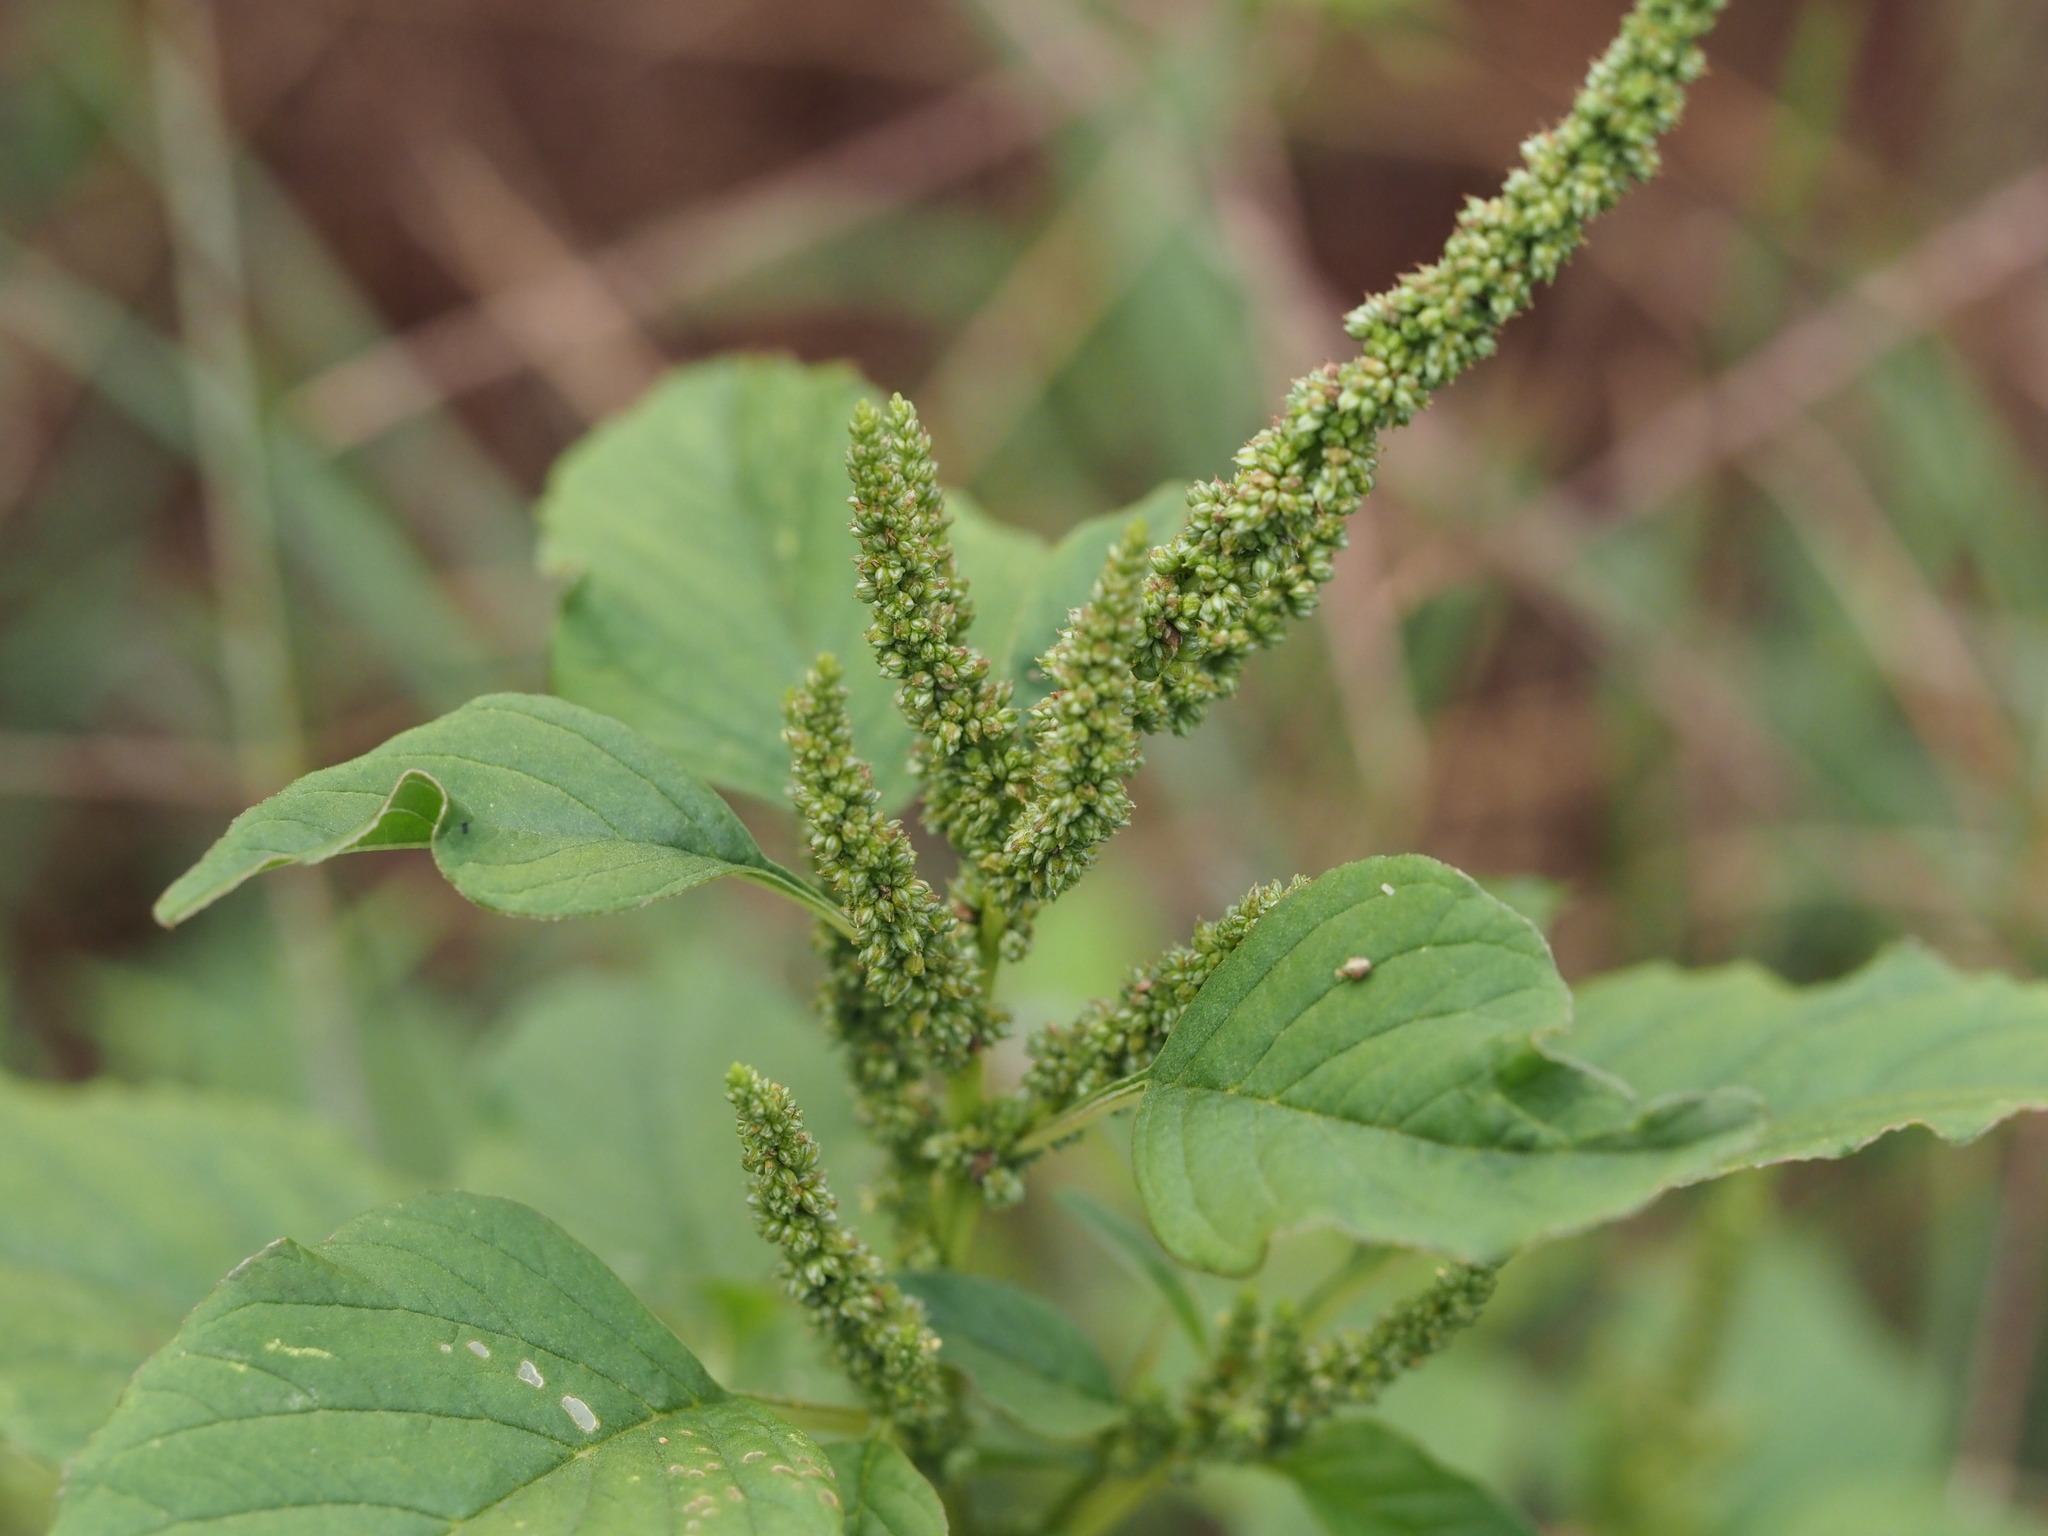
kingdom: Plantae
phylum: Tracheophyta
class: Magnoliopsida
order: Caryophyllales
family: Amaranthaceae
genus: Amaranthus
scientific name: Amaranthus viridis
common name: Slender amaranth
